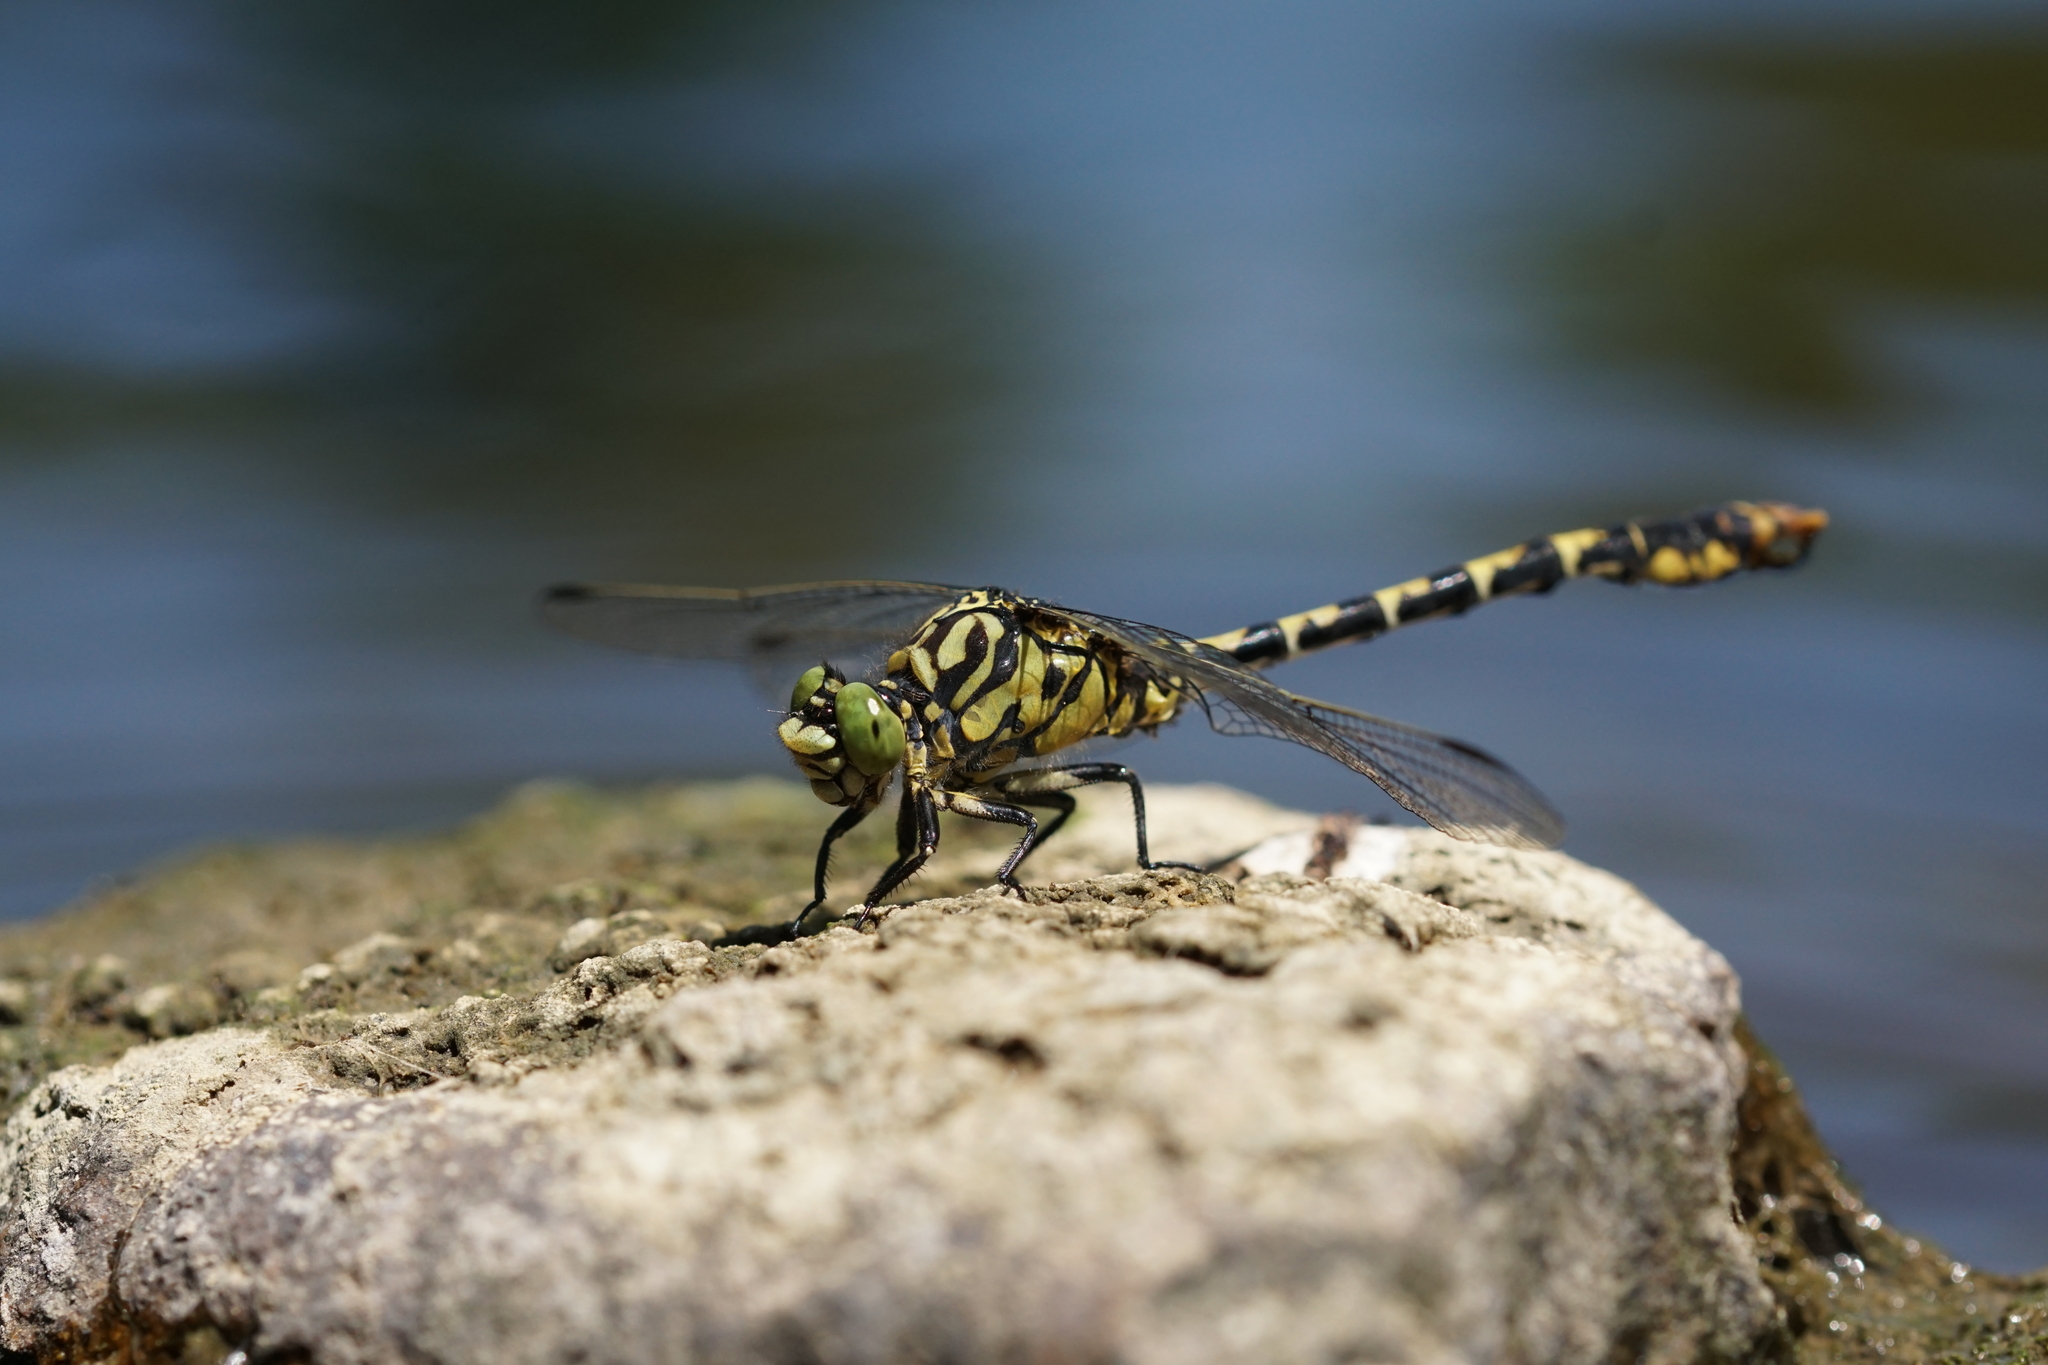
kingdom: Animalia
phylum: Arthropoda
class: Insecta
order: Odonata
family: Gomphidae
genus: Onychogomphus
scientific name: Onychogomphus forcipatus
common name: Small pincertail
